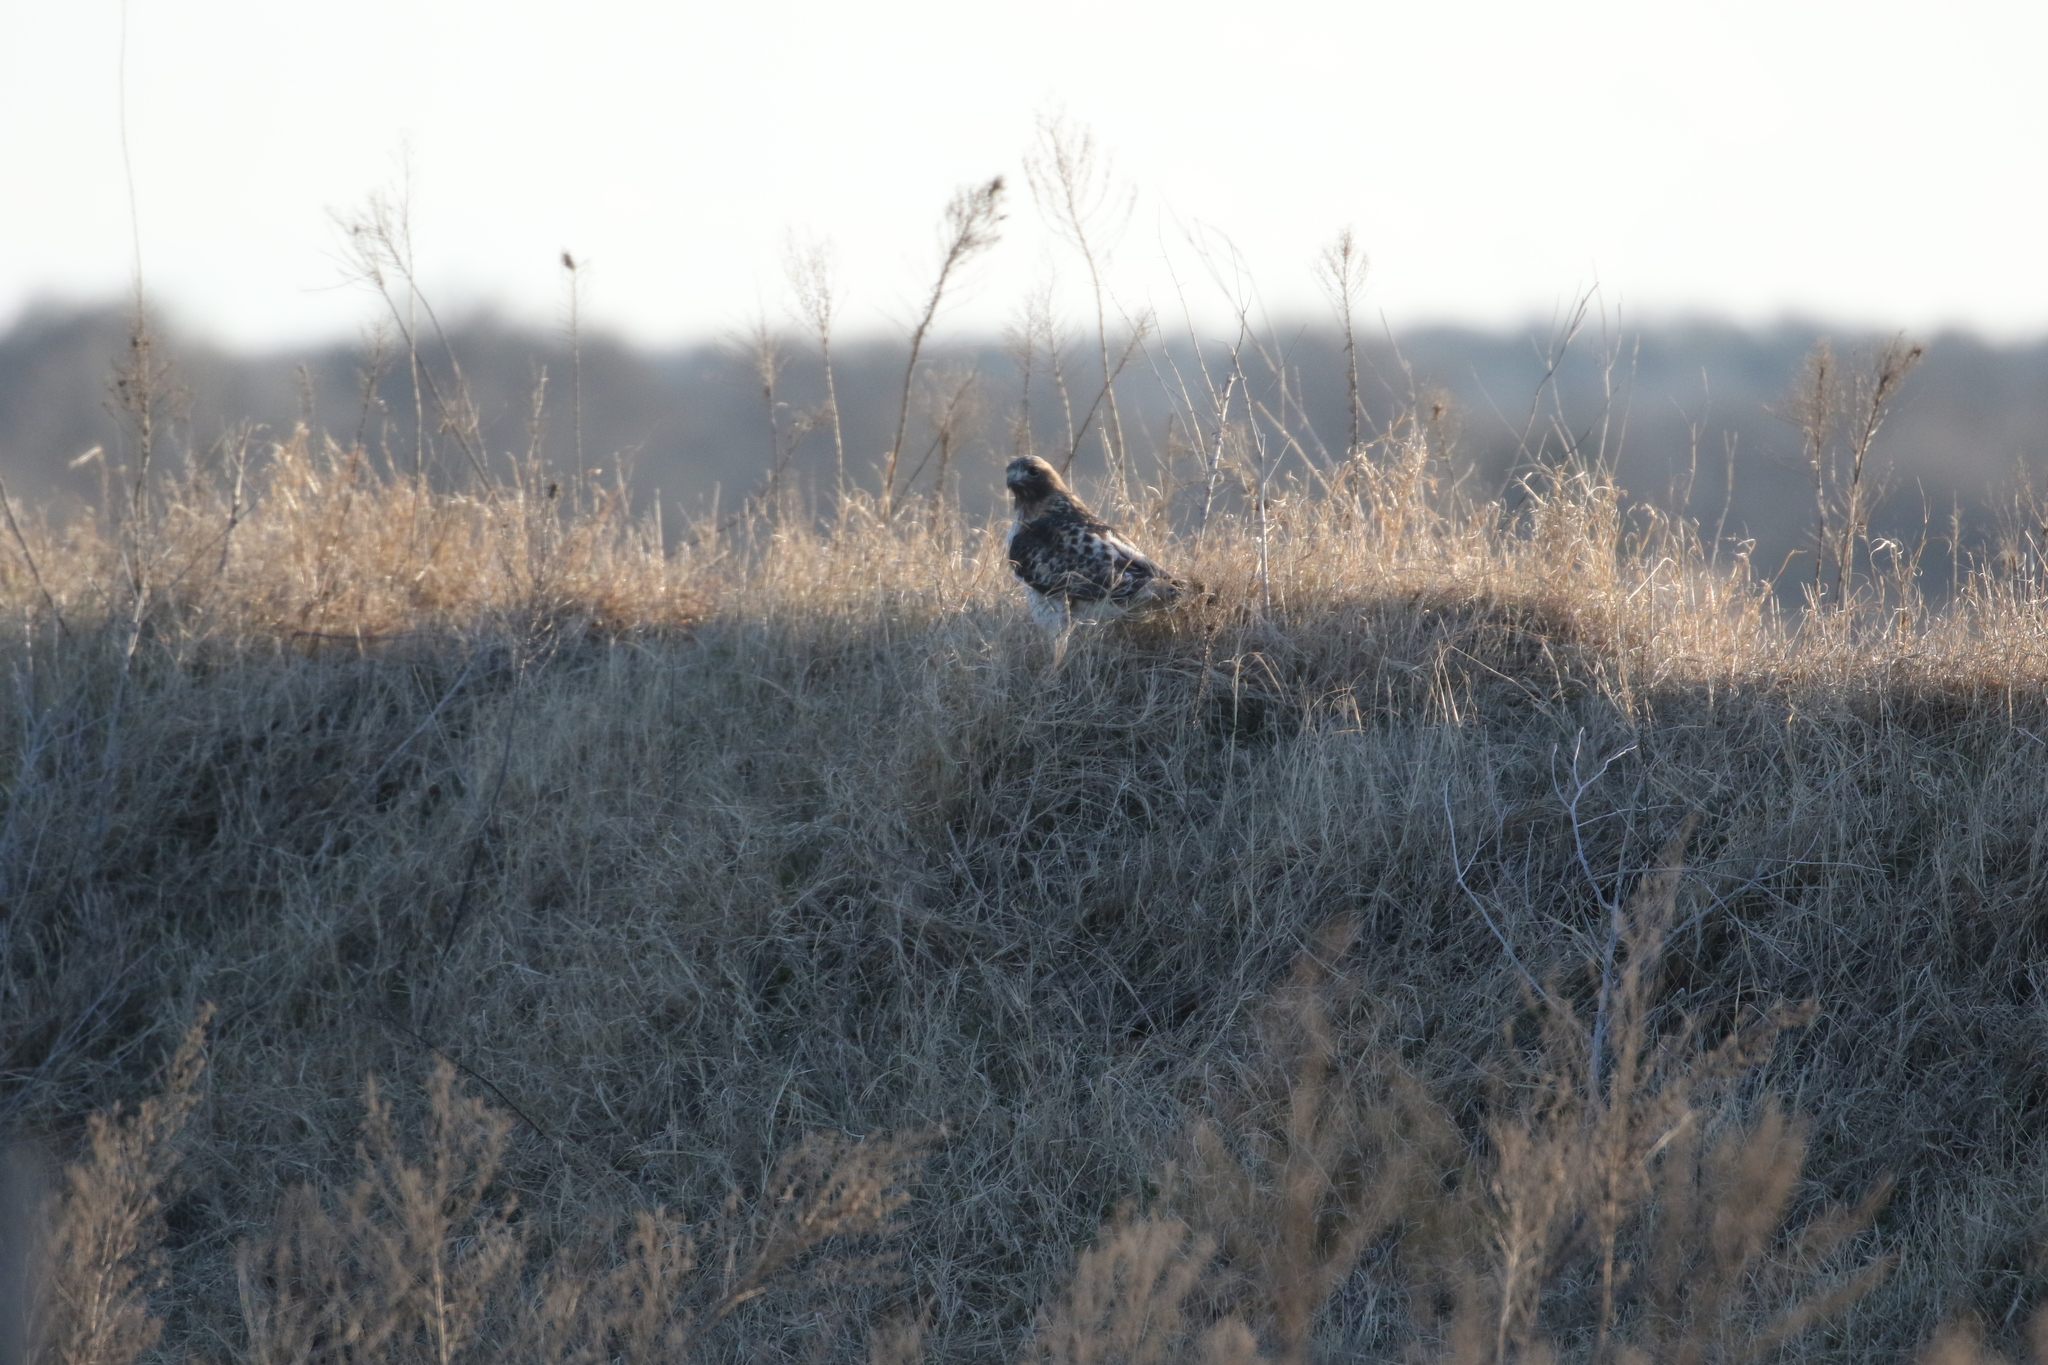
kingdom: Animalia
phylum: Chordata
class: Aves
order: Accipitriformes
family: Accipitridae
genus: Buteo
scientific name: Buteo jamaicensis
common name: Red-tailed hawk
